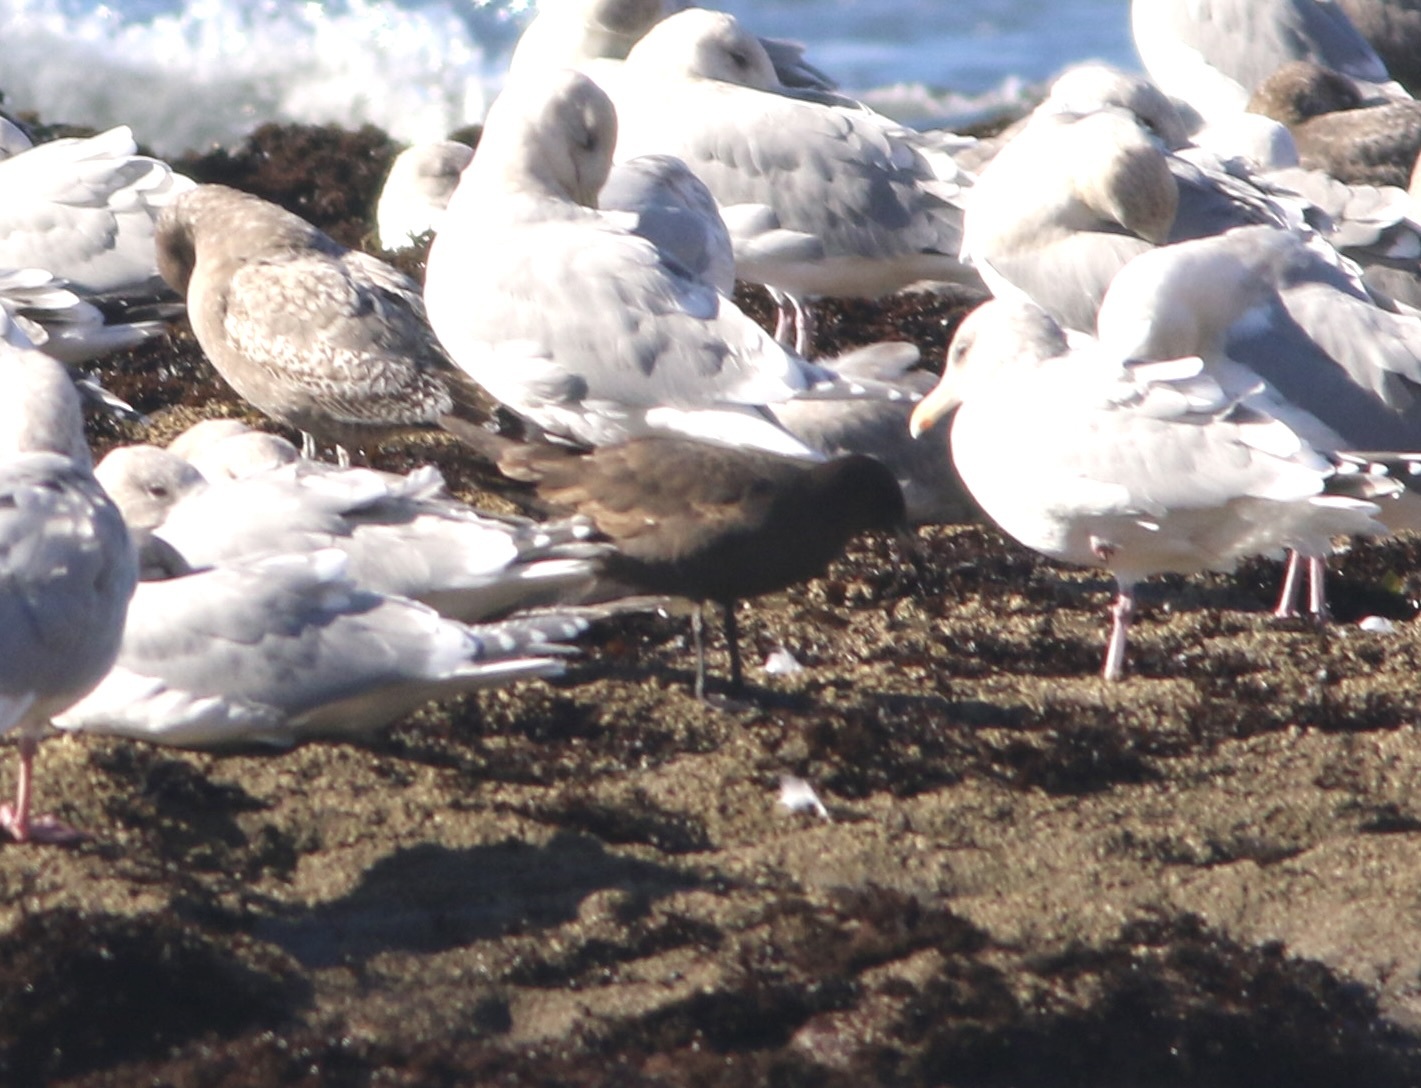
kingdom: Animalia
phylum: Chordata
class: Aves
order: Charadriiformes
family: Laridae
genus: Larus
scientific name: Larus heermanni
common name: Heermann's gull
